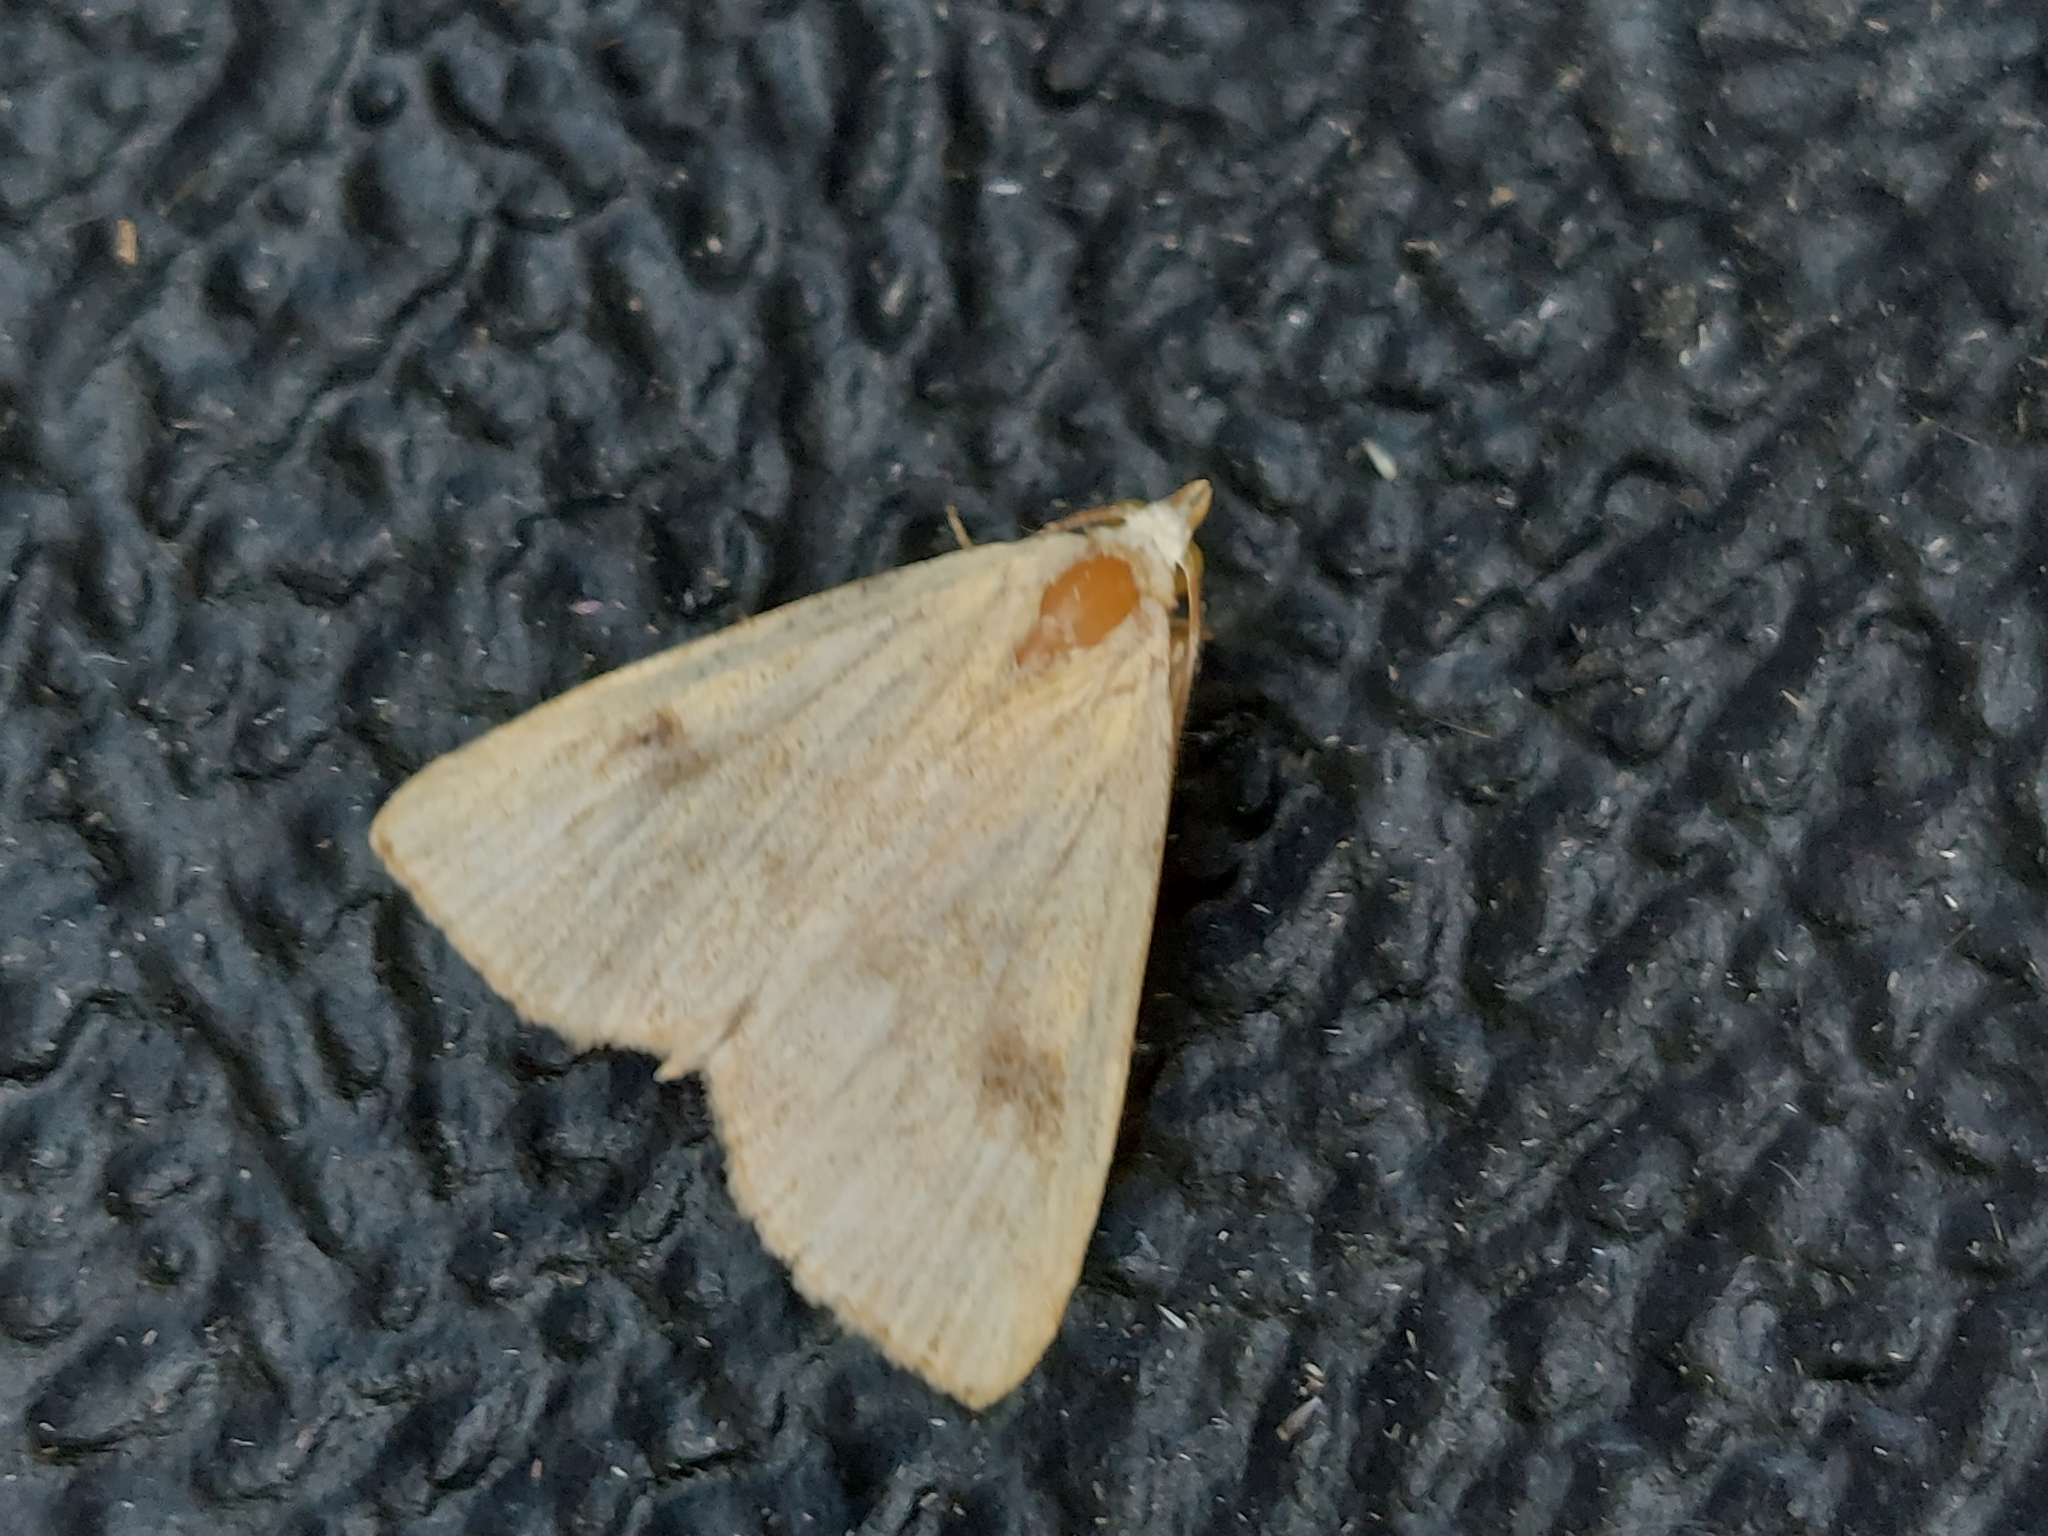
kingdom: Animalia
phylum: Arthropoda
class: Insecta
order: Lepidoptera
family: Erebidae
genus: Rivula
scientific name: Rivula sericealis
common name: Straw dot
